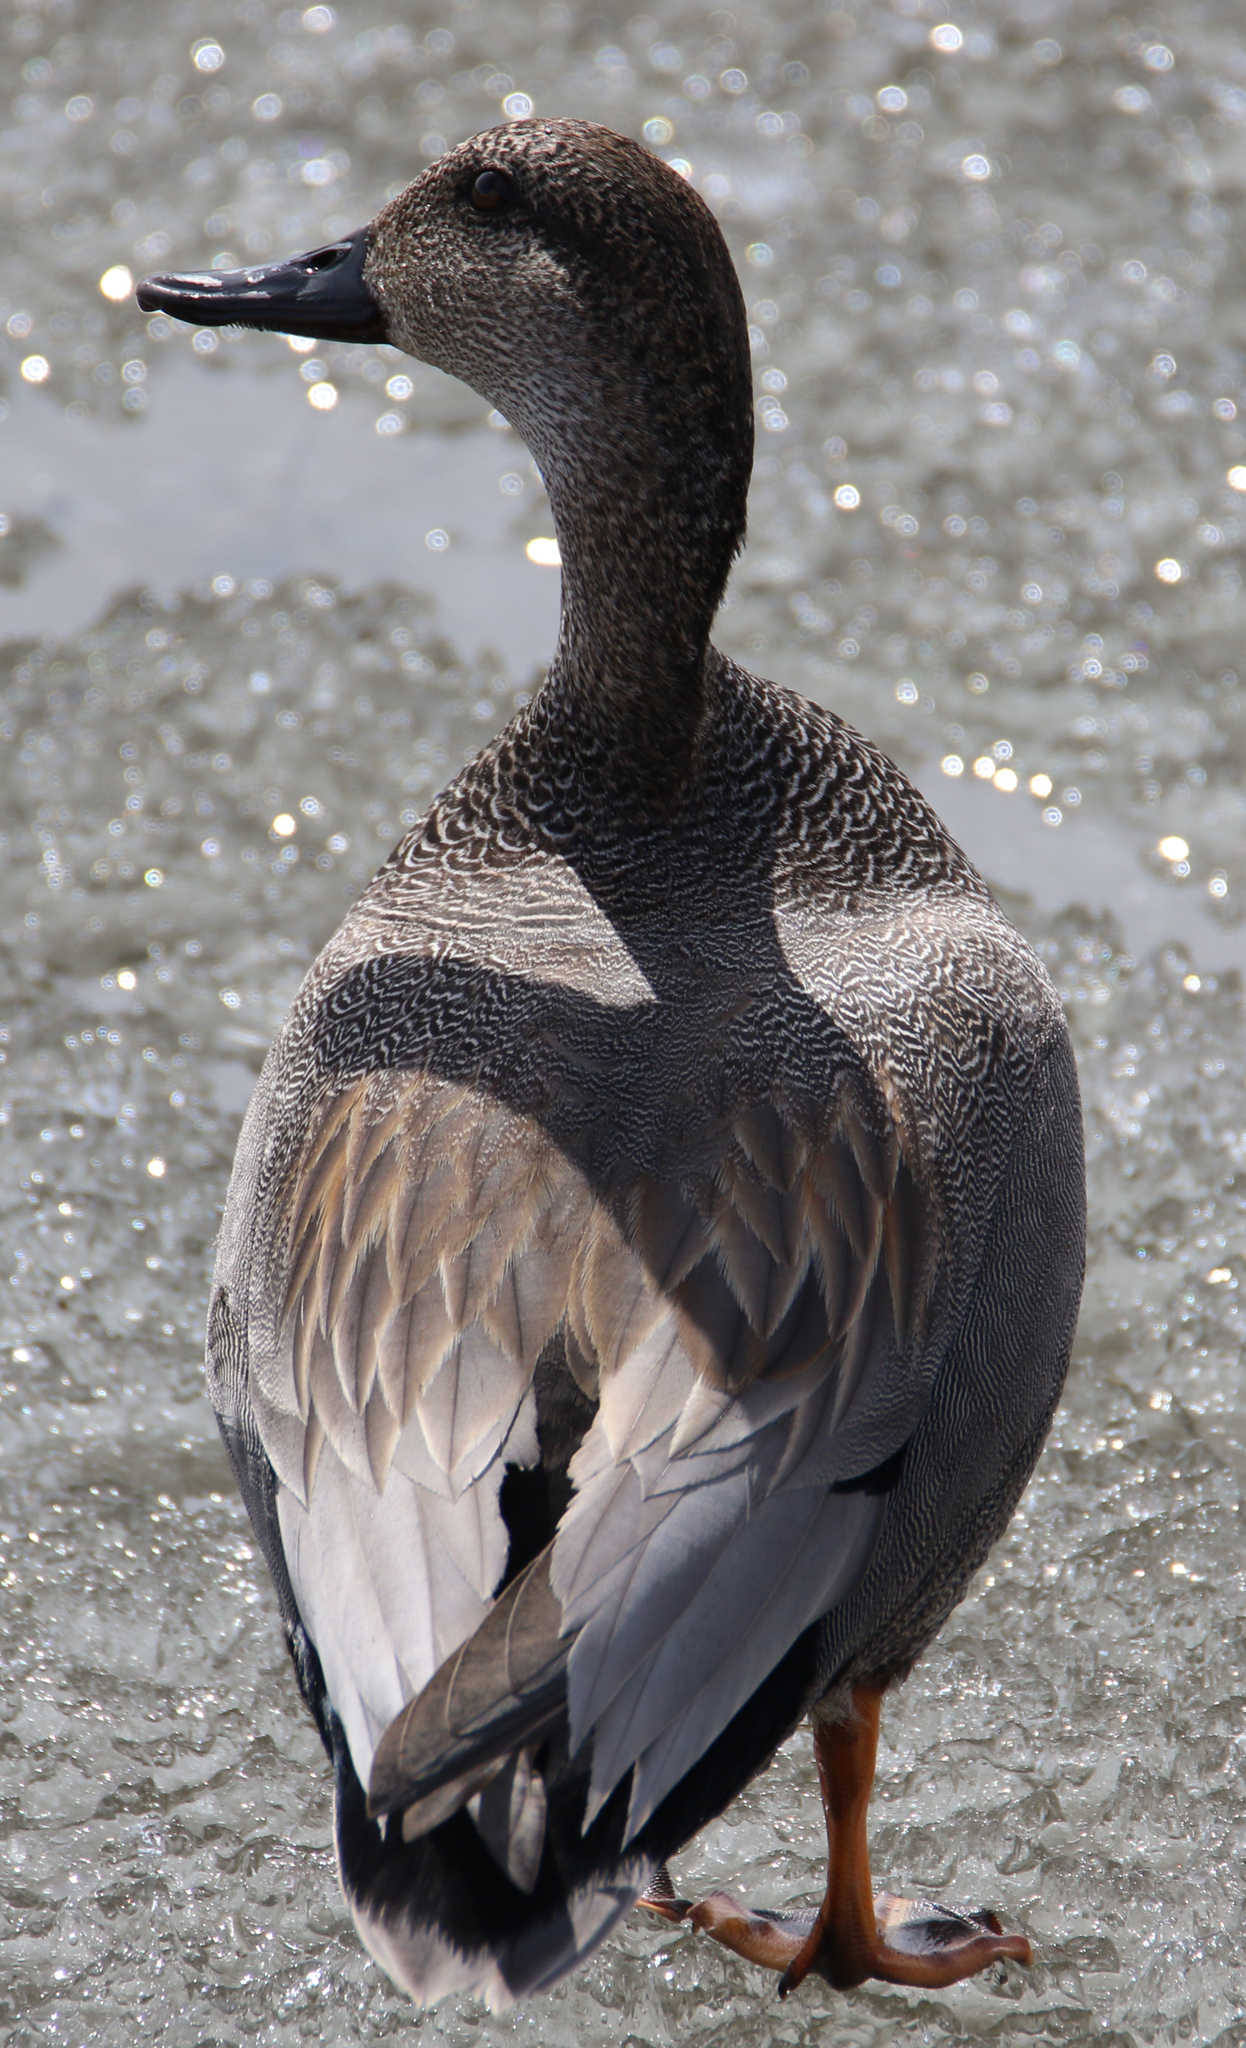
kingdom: Animalia
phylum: Chordata
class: Aves
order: Anseriformes
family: Anatidae
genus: Mareca
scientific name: Mareca strepera
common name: Gadwall
